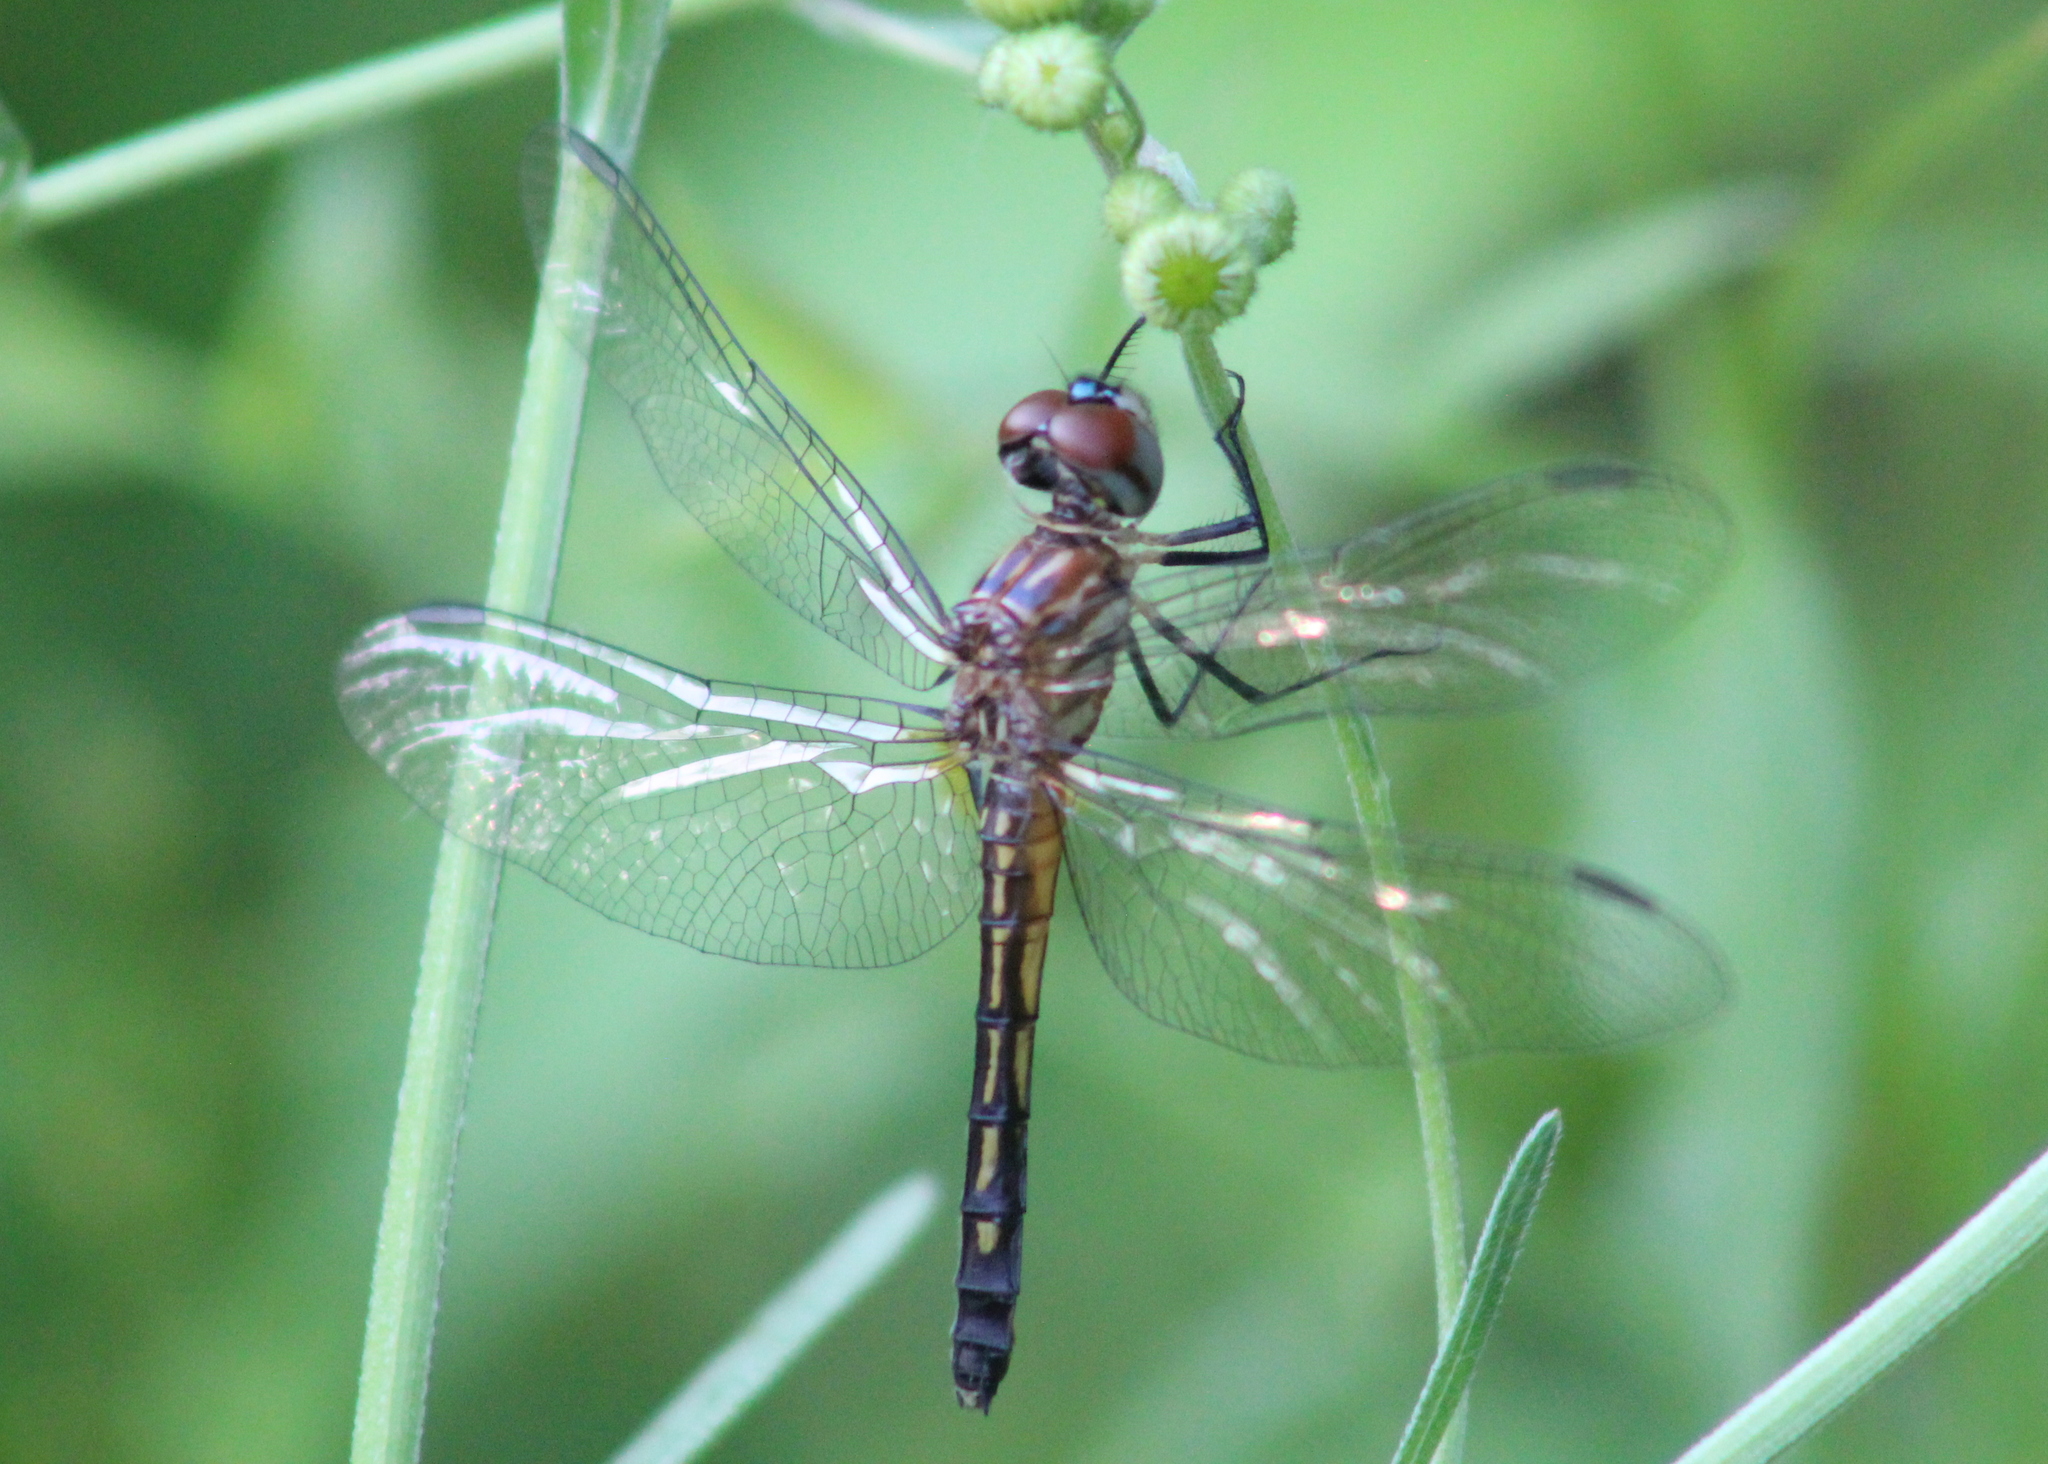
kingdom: Animalia
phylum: Arthropoda
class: Insecta
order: Odonata
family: Libellulidae
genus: Pachydiplax
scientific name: Pachydiplax longipennis
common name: Blue dasher
